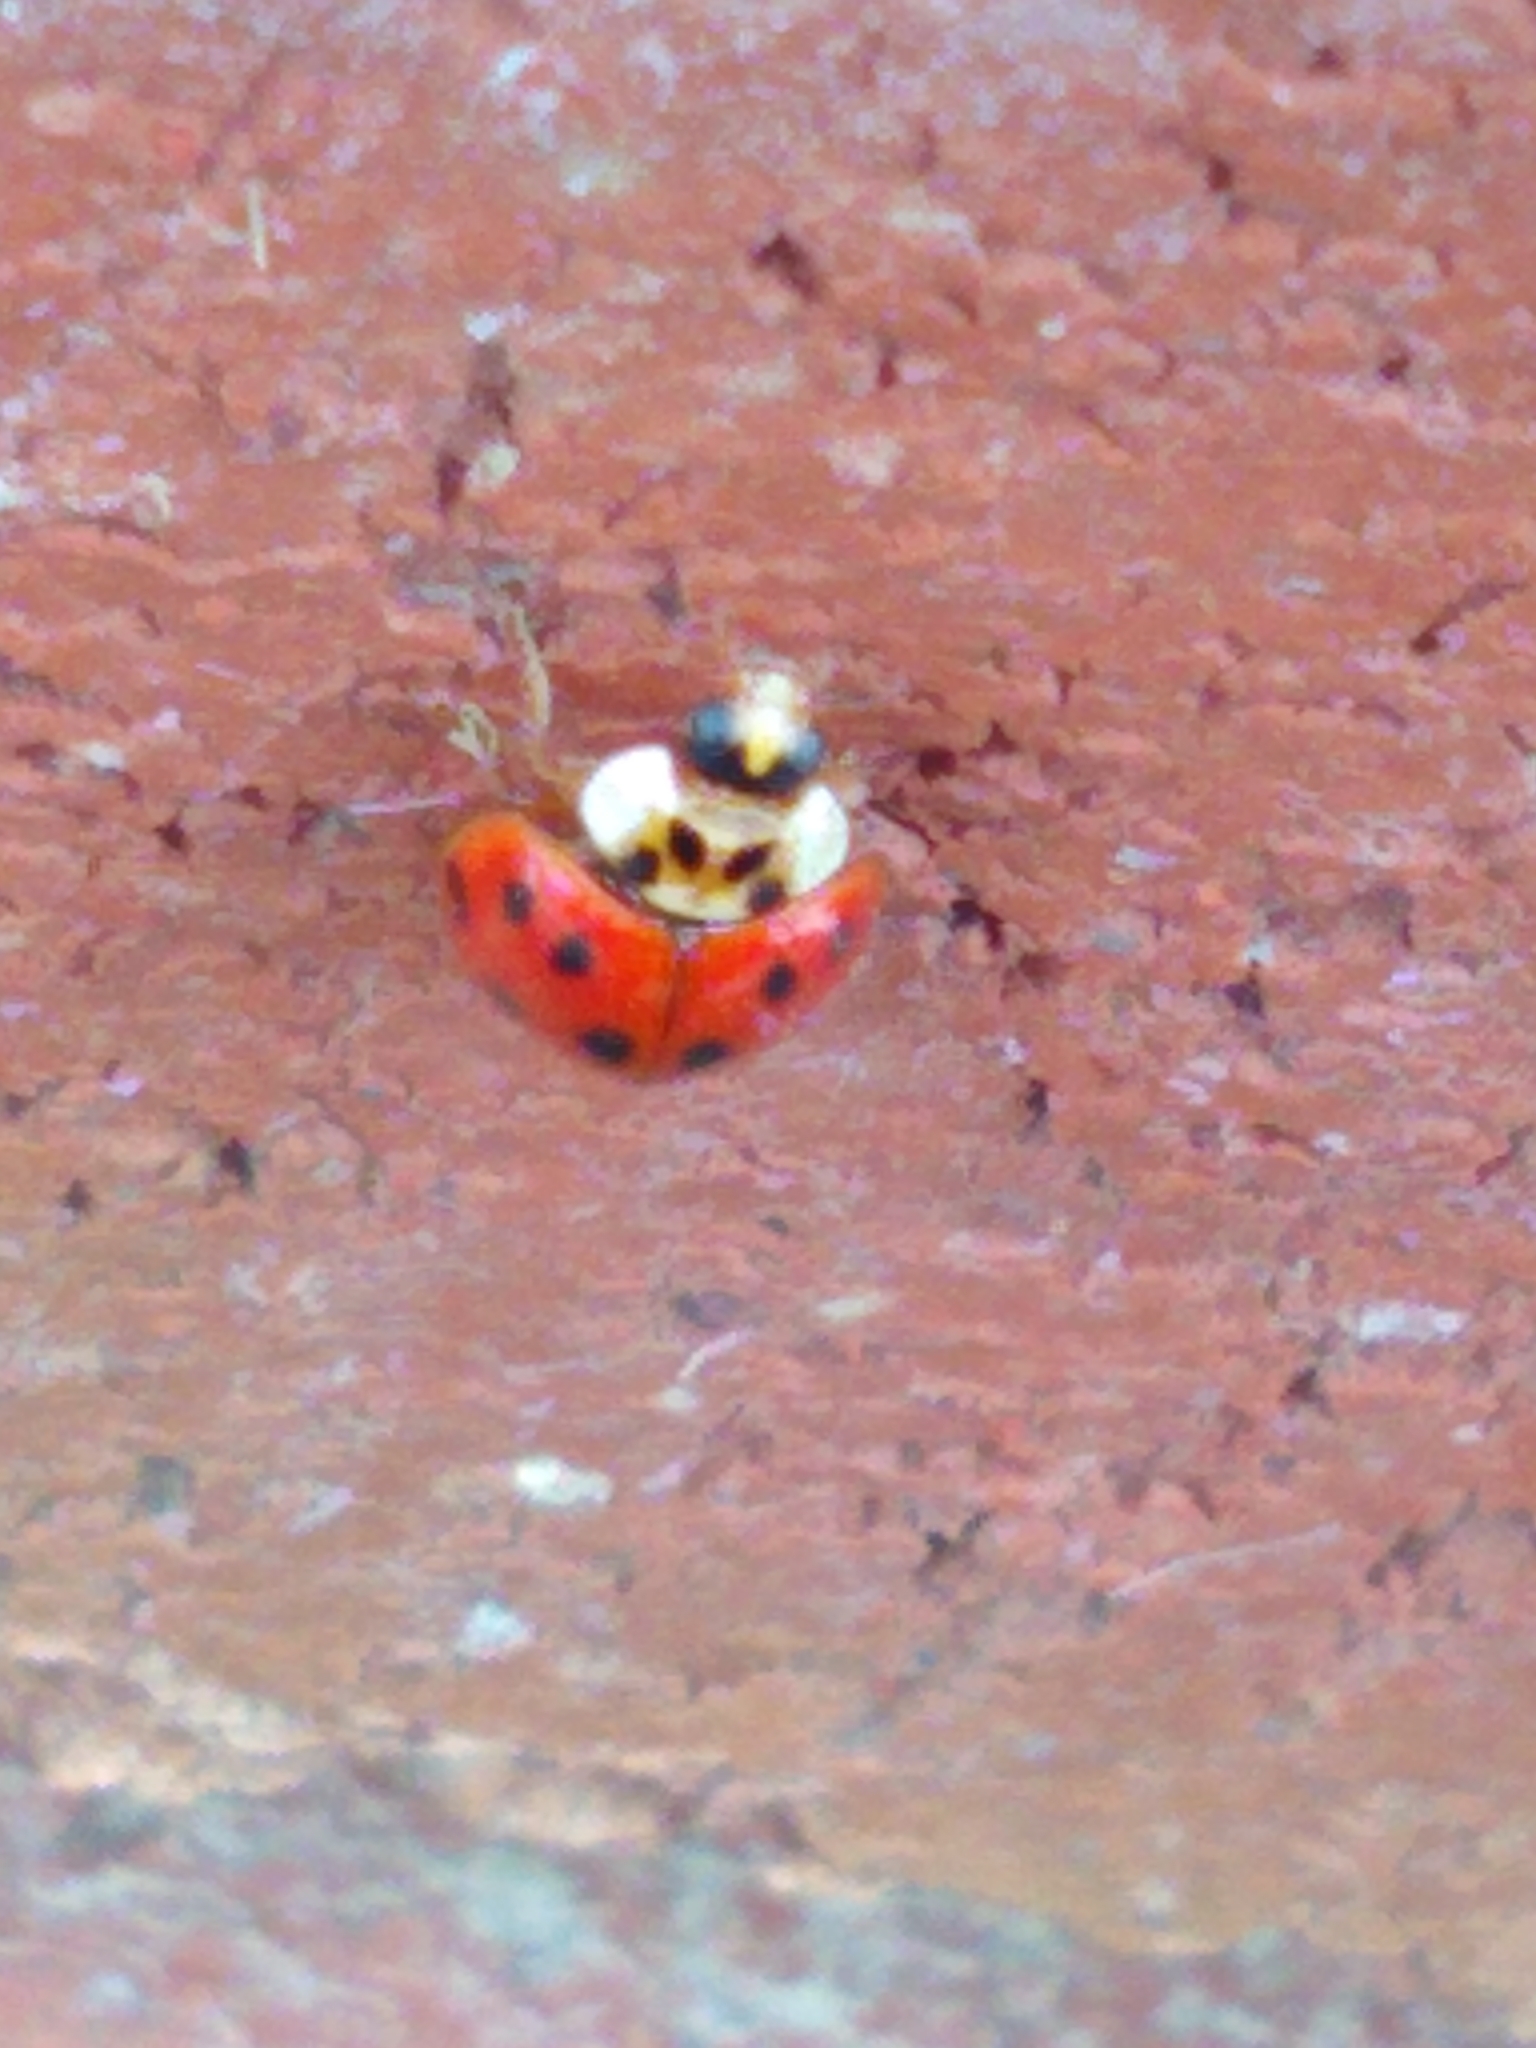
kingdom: Animalia
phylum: Arthropoda
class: Insecta
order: Coleoptera
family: Coccinellidae
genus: Harmonia
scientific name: Harmonia axyridis
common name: Harlequin ladybird
